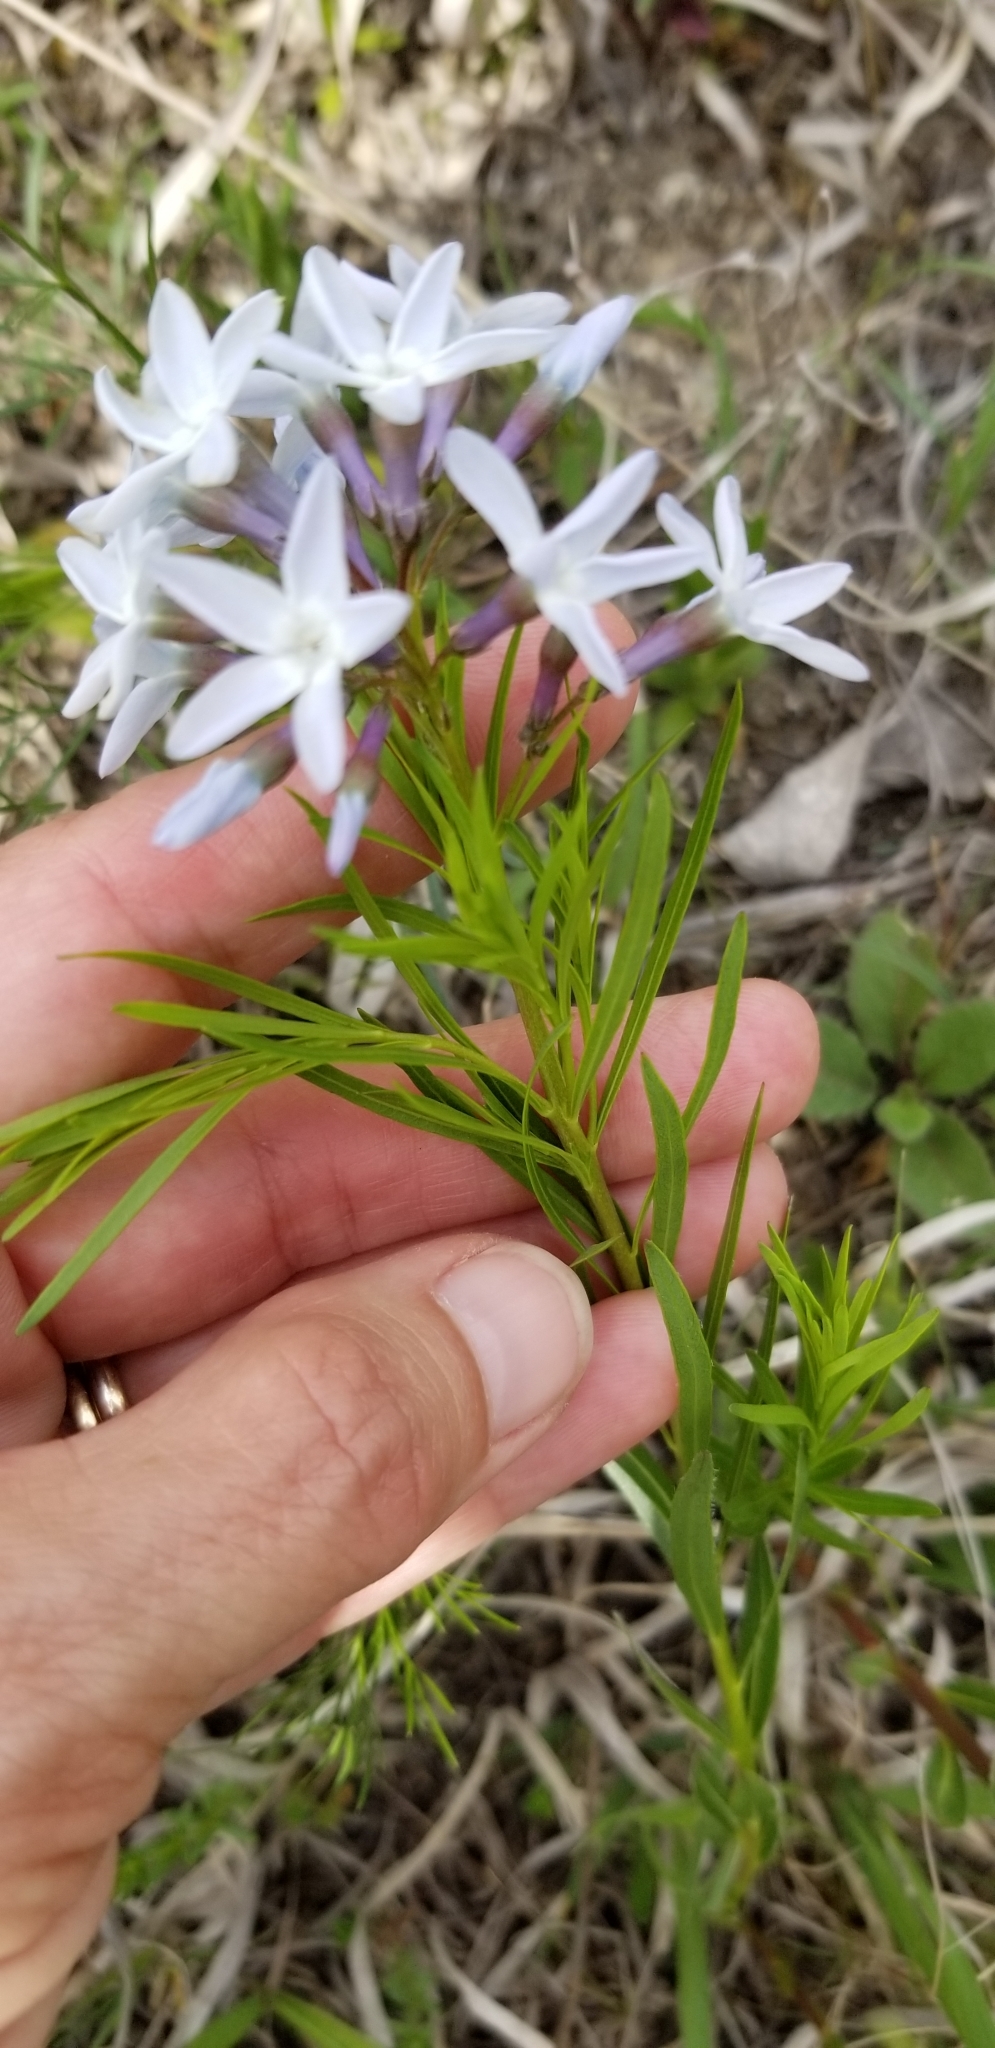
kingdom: Plantae
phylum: Tracheophyta
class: Magnoliopsida
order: Gentianales
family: Apocynaceae
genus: Amsonia
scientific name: Amsonia ciliata
